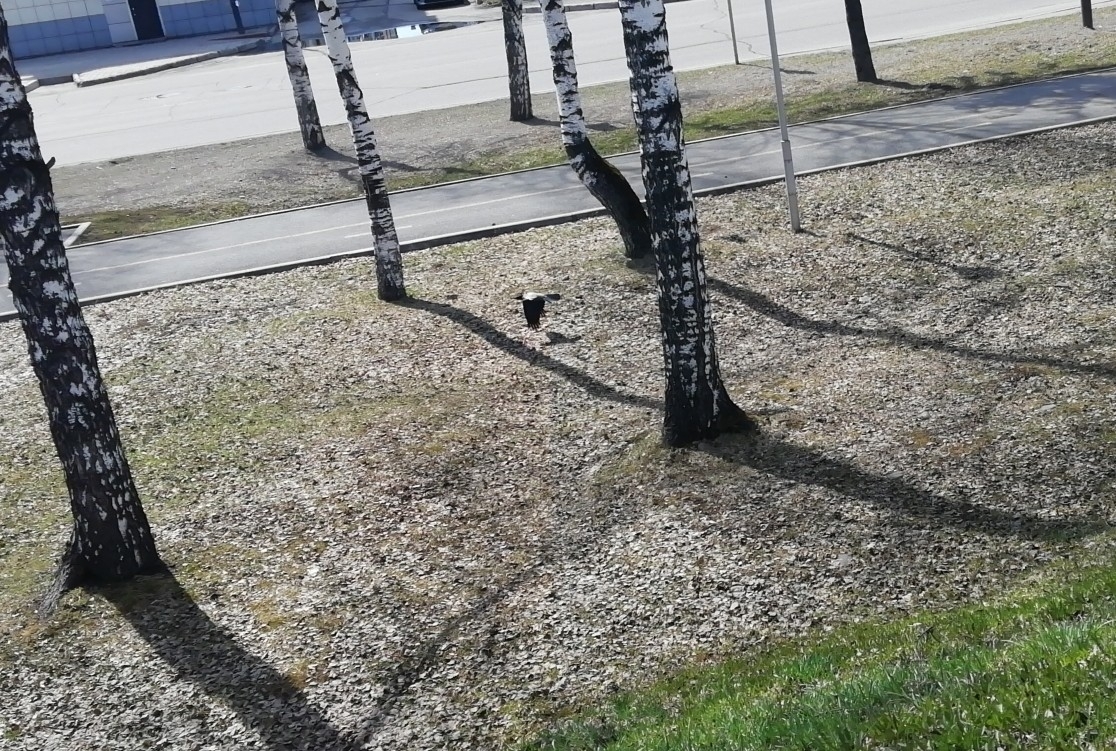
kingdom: Animalia
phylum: Chordata
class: Aves
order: Passeriformes
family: Corvidae
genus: Corvus
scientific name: Corvus cornix
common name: Hooded crow
